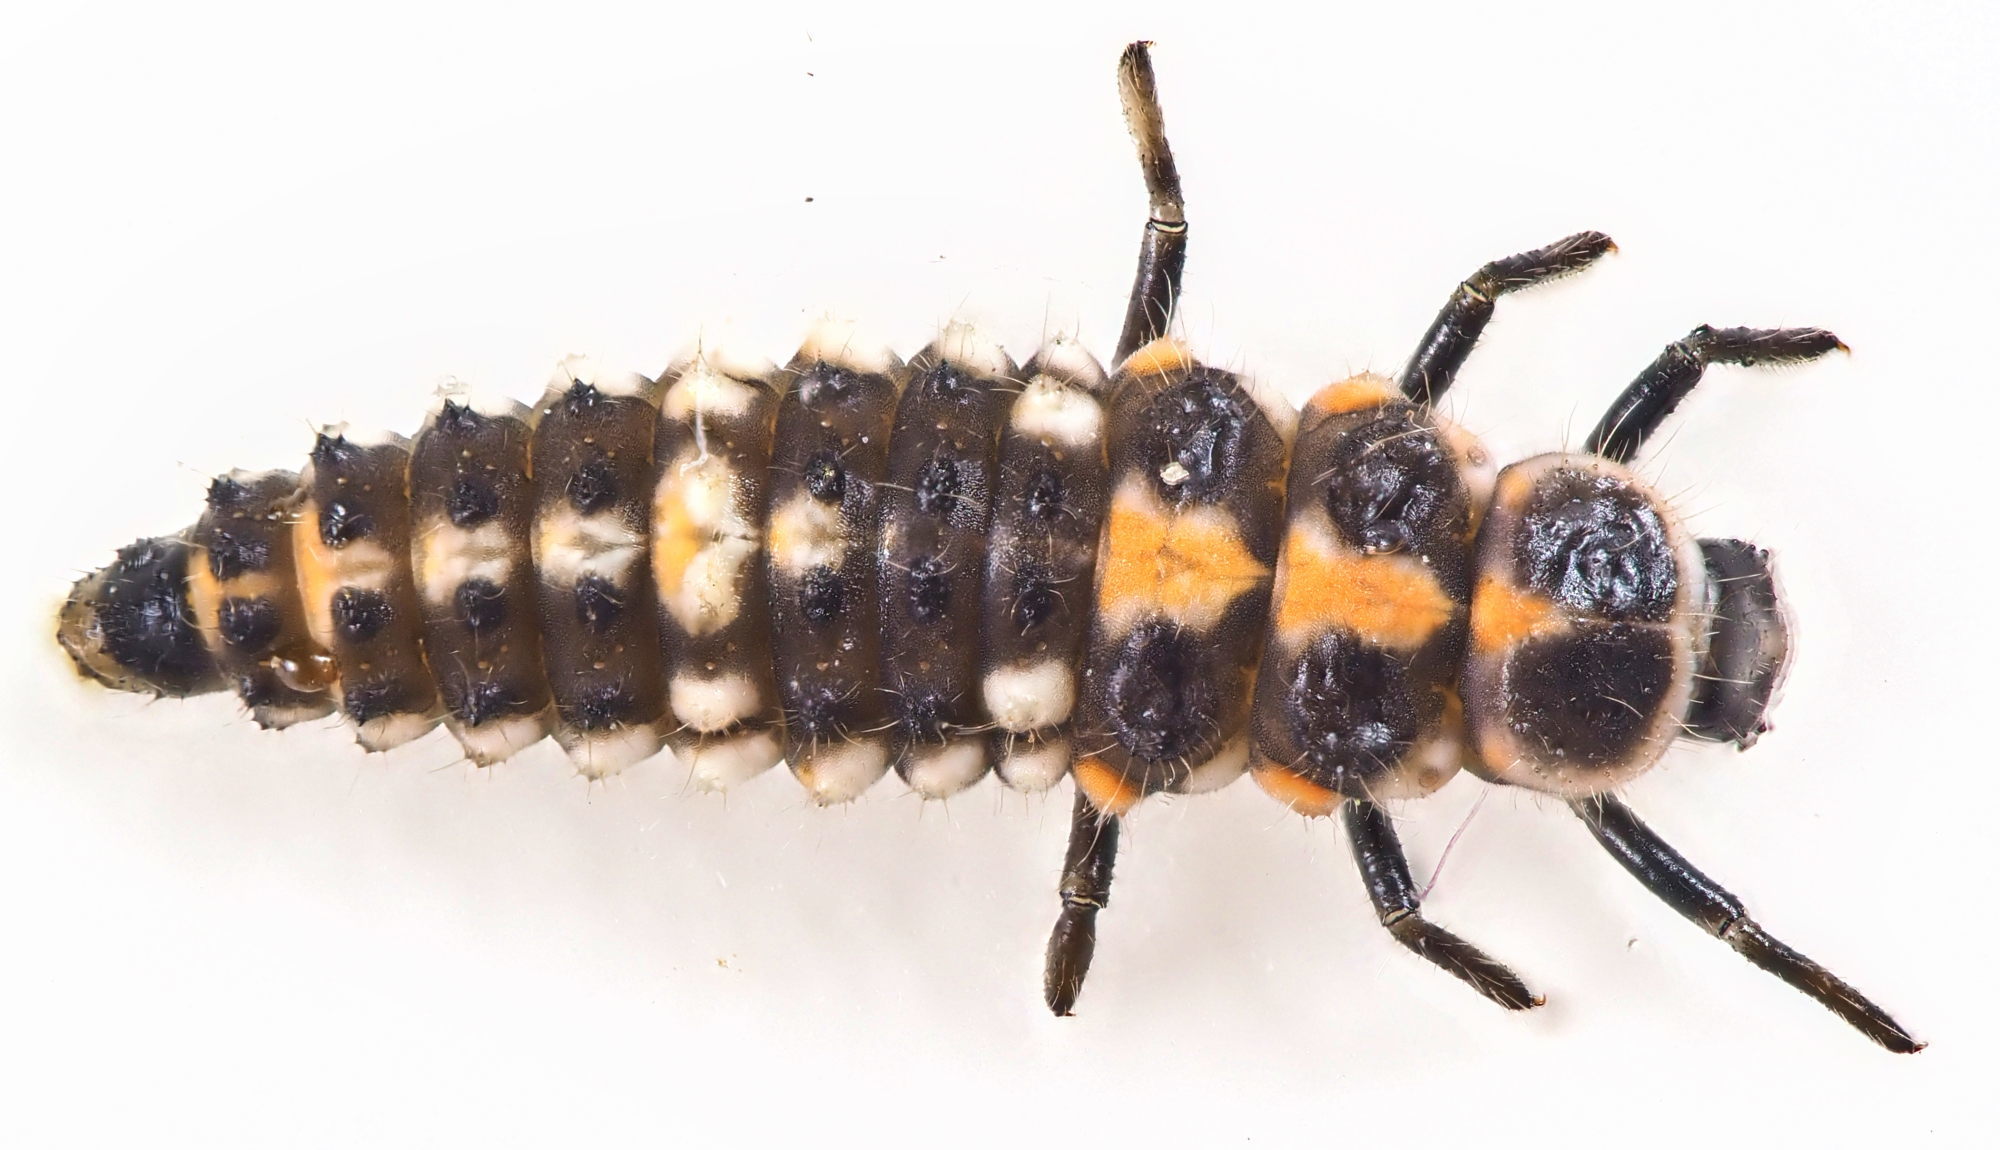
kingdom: Animalia
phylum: Arthropoda
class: Insecta
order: Coleoptera
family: Coccinellidae
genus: Oenopia
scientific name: Oenopia conglobata
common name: Ladybird beetle
